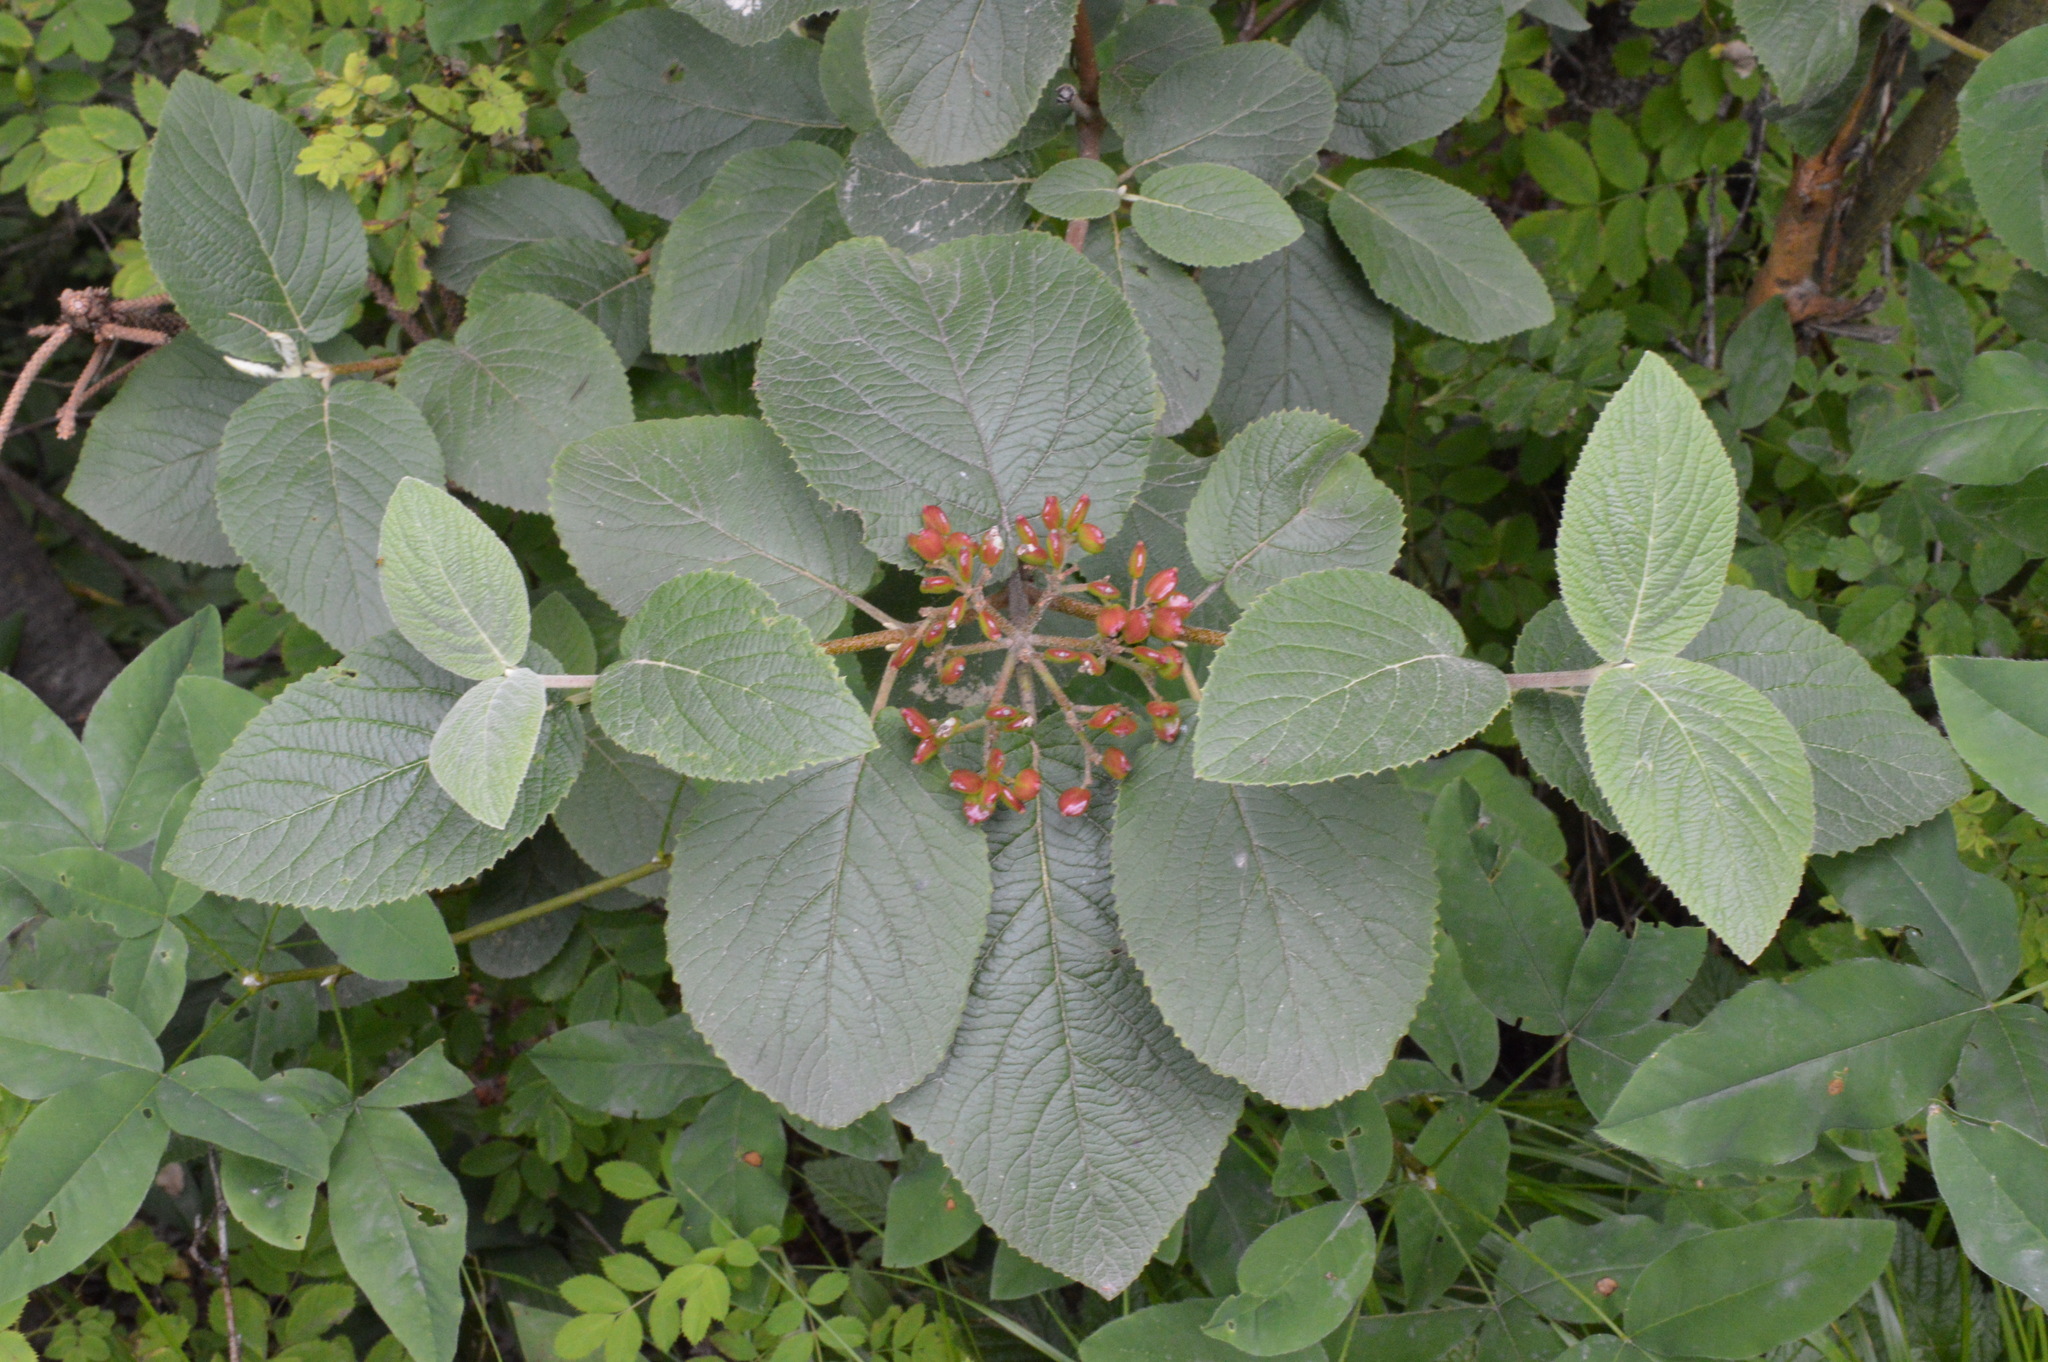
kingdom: Plantae
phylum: Tracheophyta
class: Magnoliopsida
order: Dipsacales
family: Viburnaceae
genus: Viburnum
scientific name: Viburnum lantana
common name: Wayfaring tree
